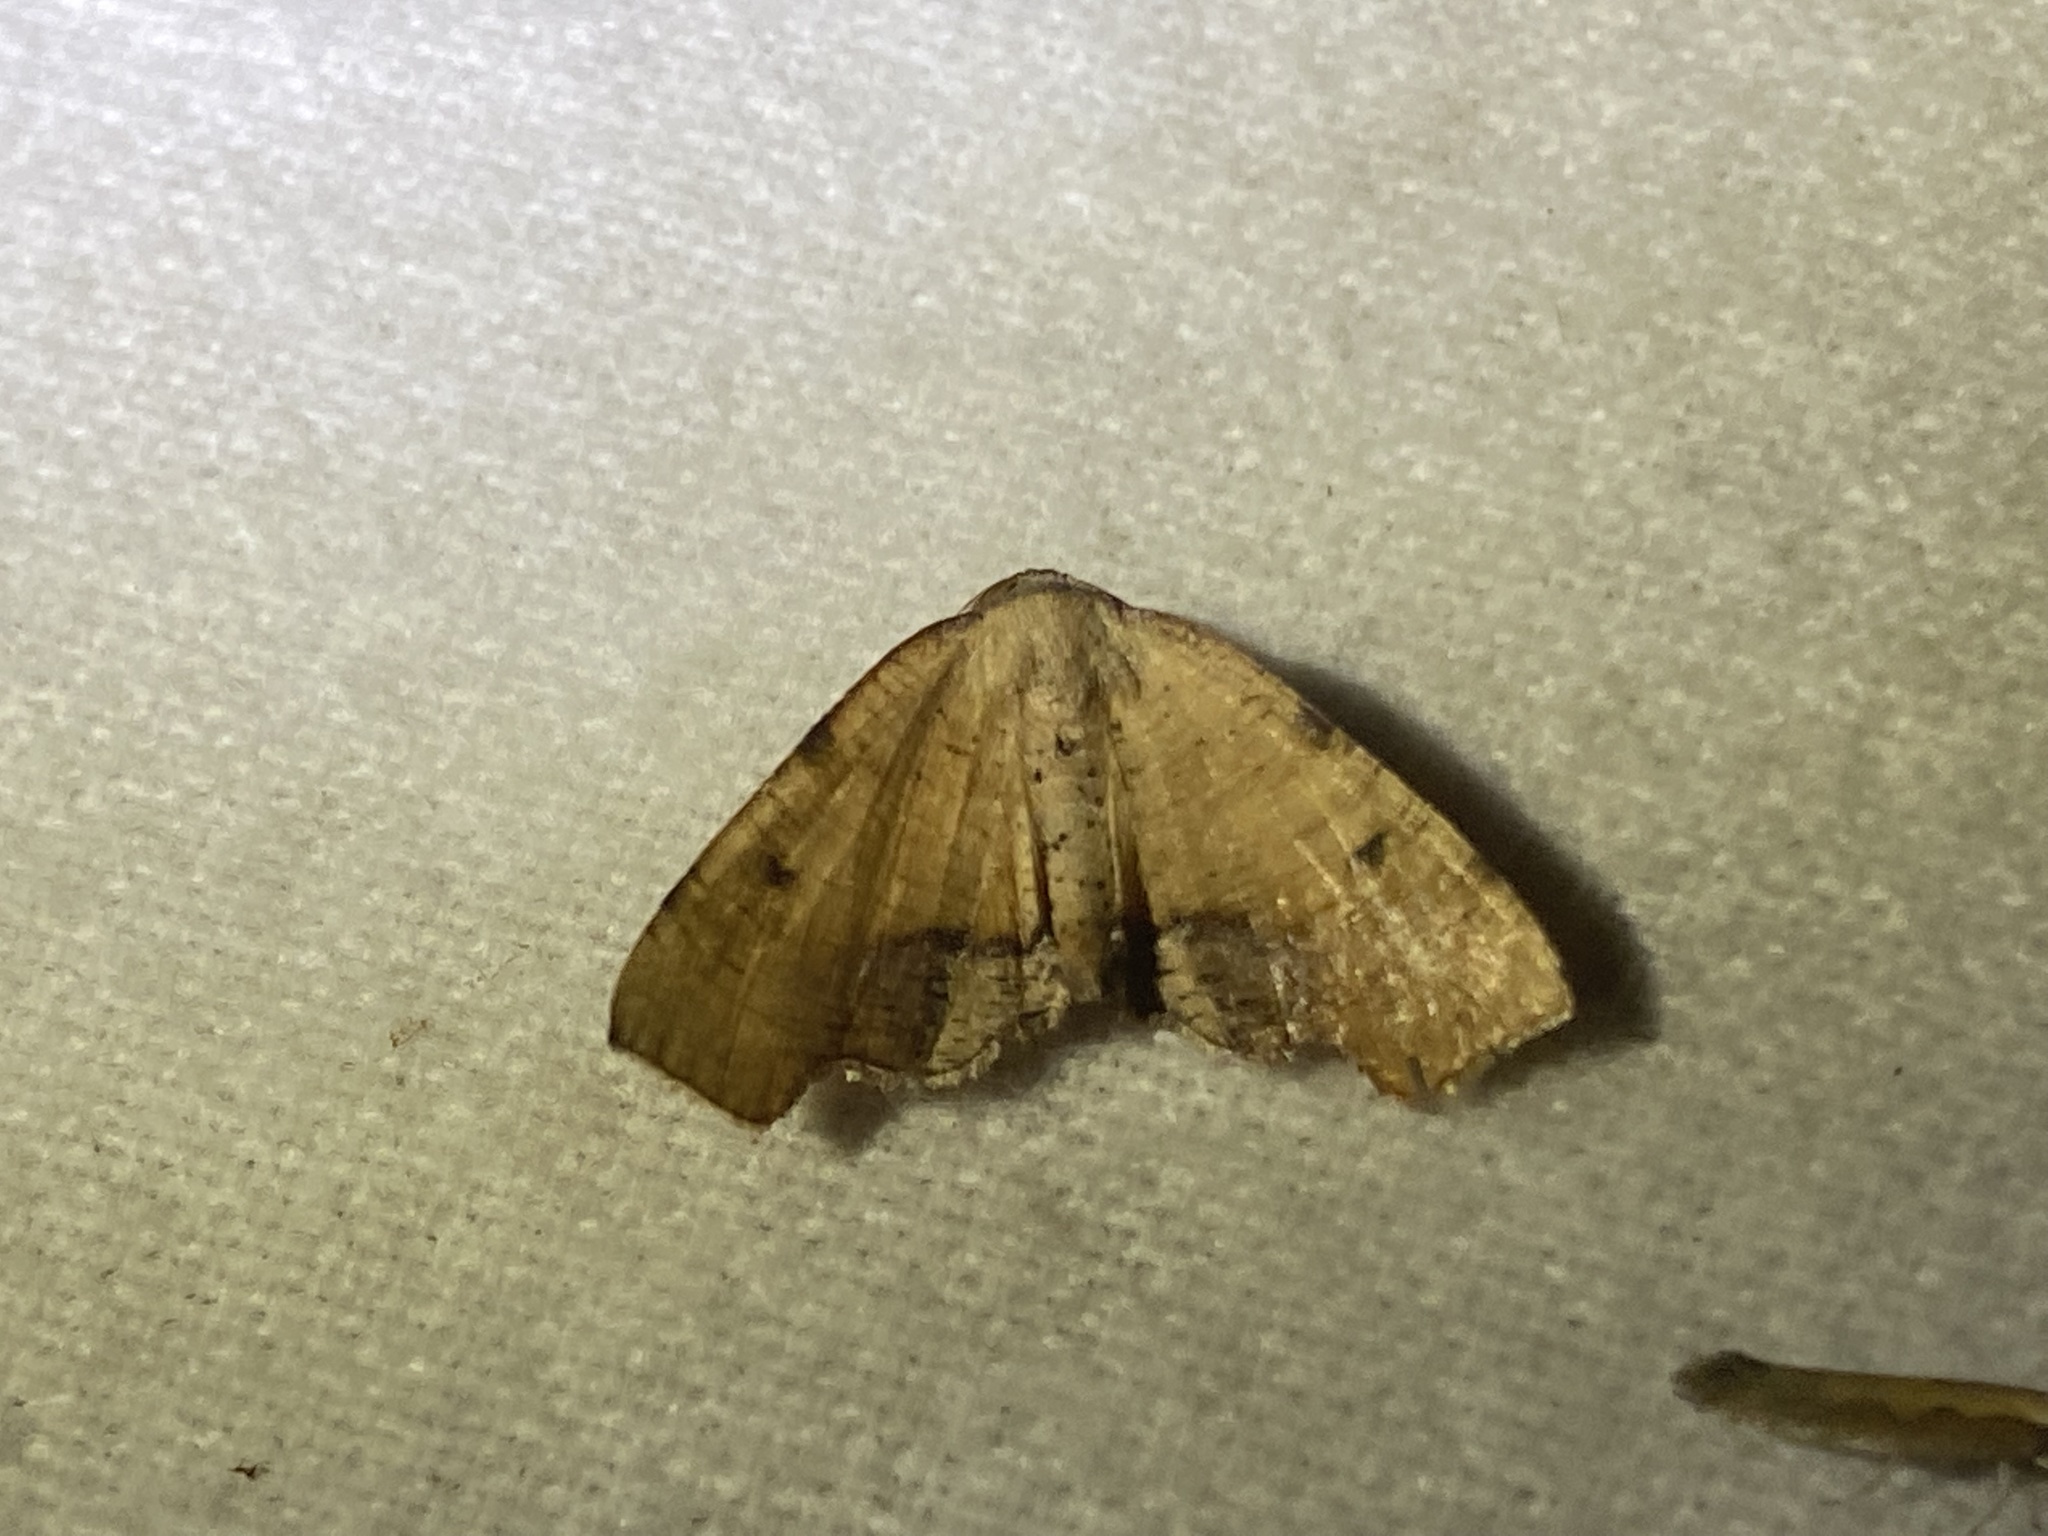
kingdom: Animalia
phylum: Arthropoda
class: Insecta
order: Lepidoptera
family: Geometridae
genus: Plagodis
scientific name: Plagodis fervidaria
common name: Fervid plagodis
